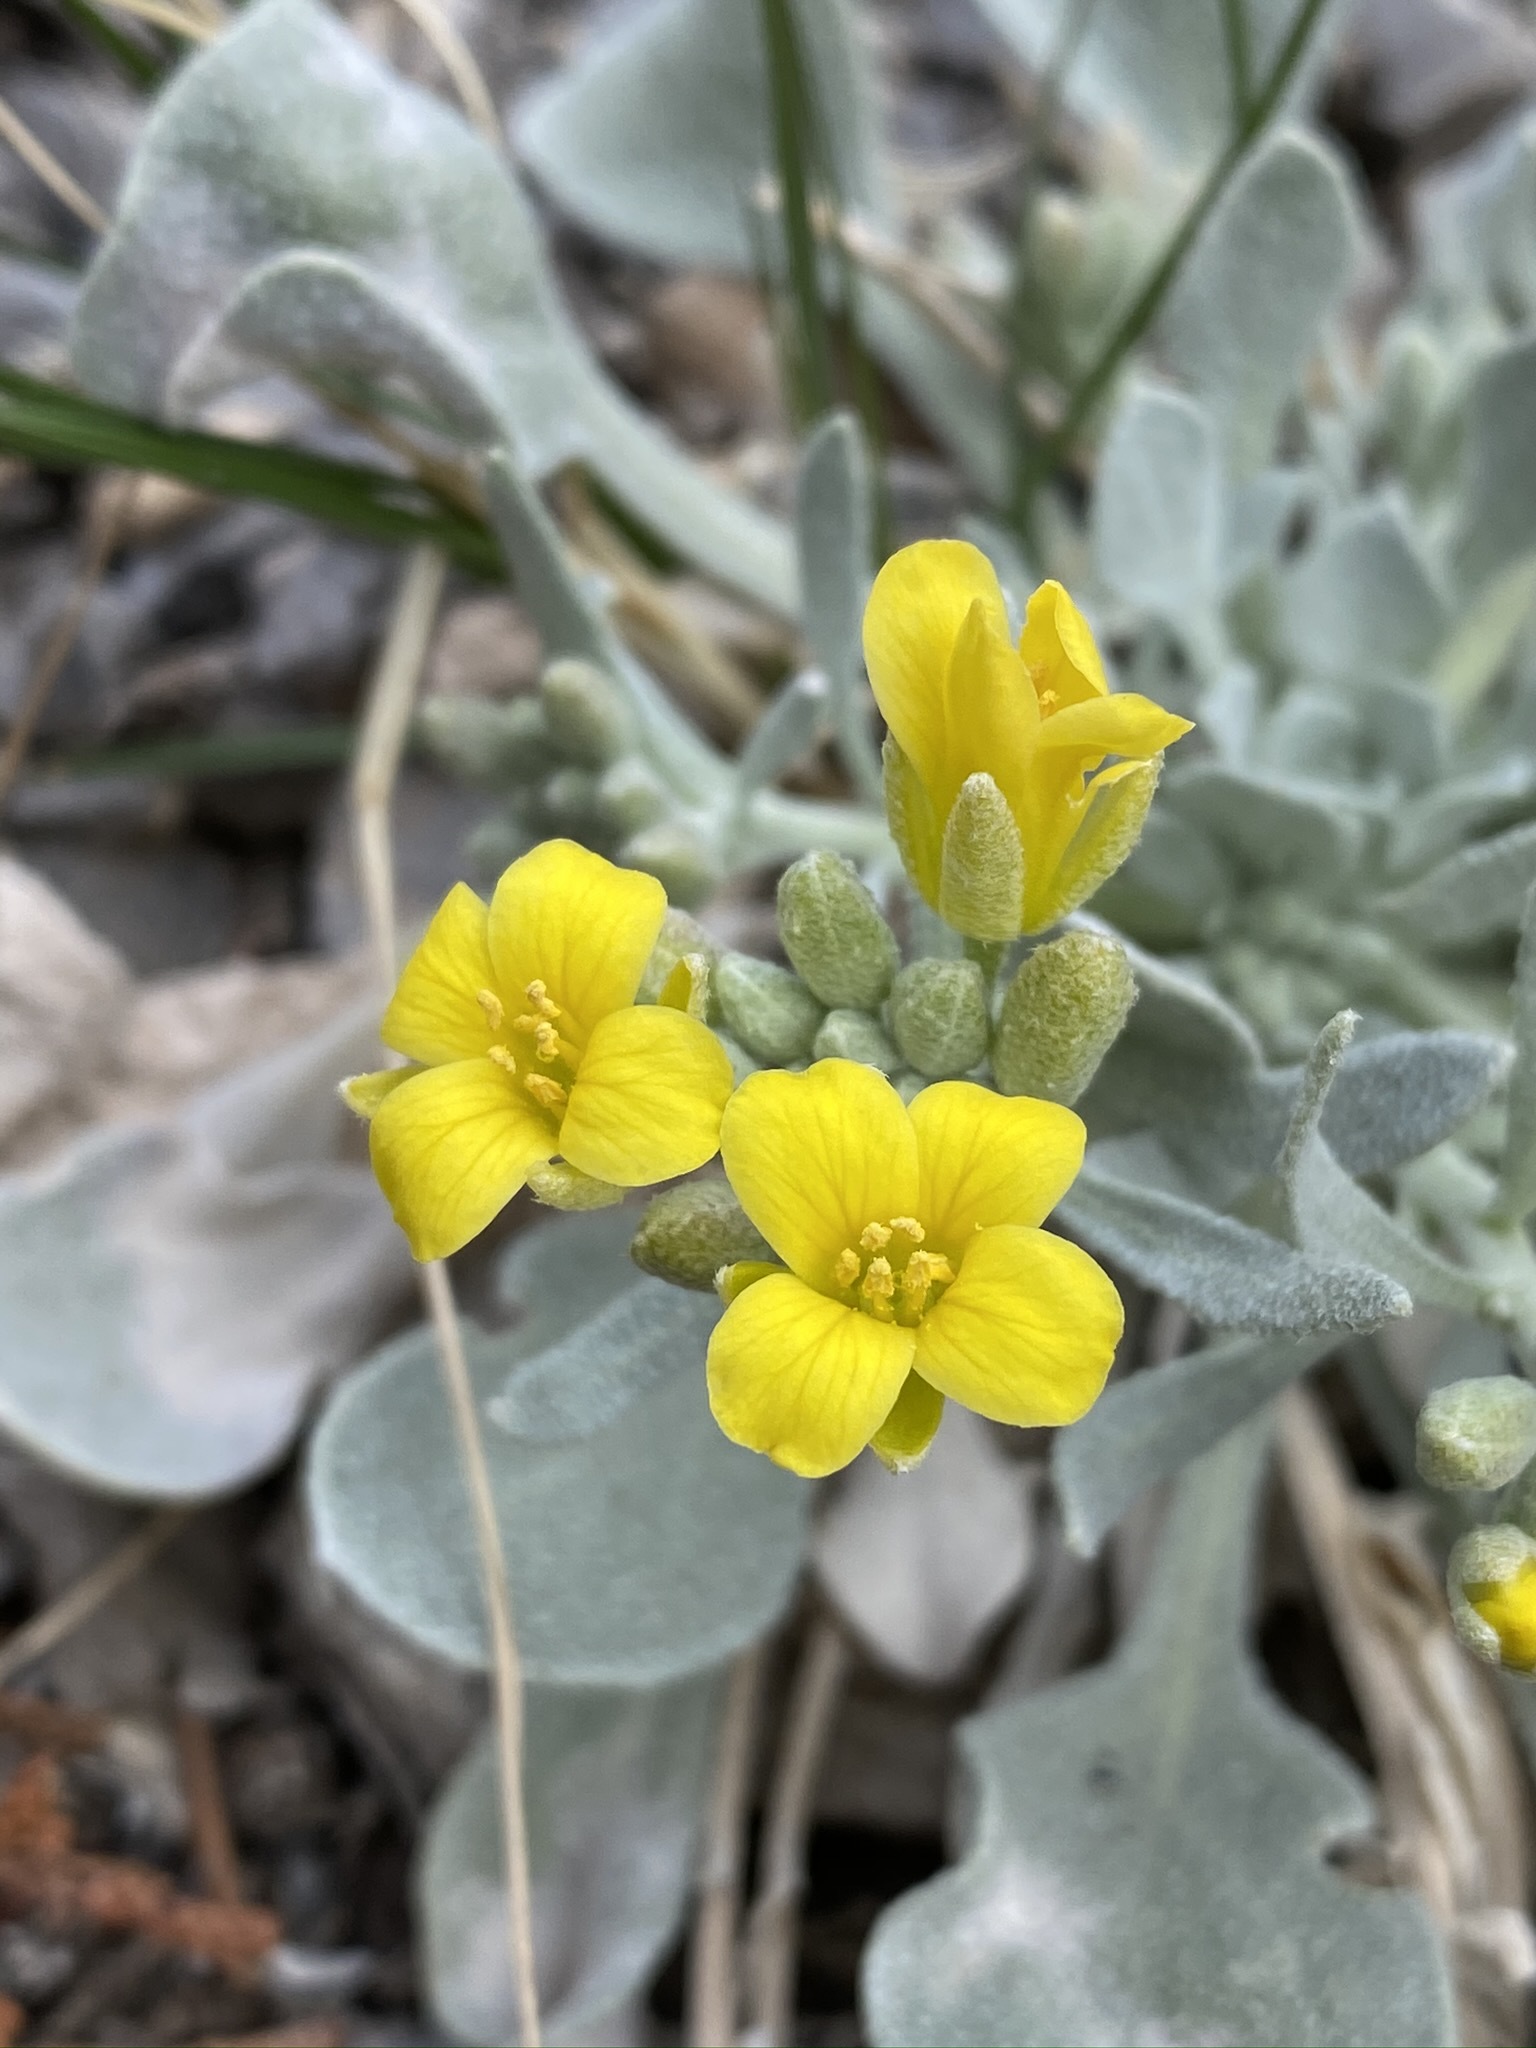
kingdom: Plantae
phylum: Tracheophyta
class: Magnoliopsida
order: Brassicales
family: Brassicaceae
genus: Physaria
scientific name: Physaria chambersii
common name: Chamber's twinpod
